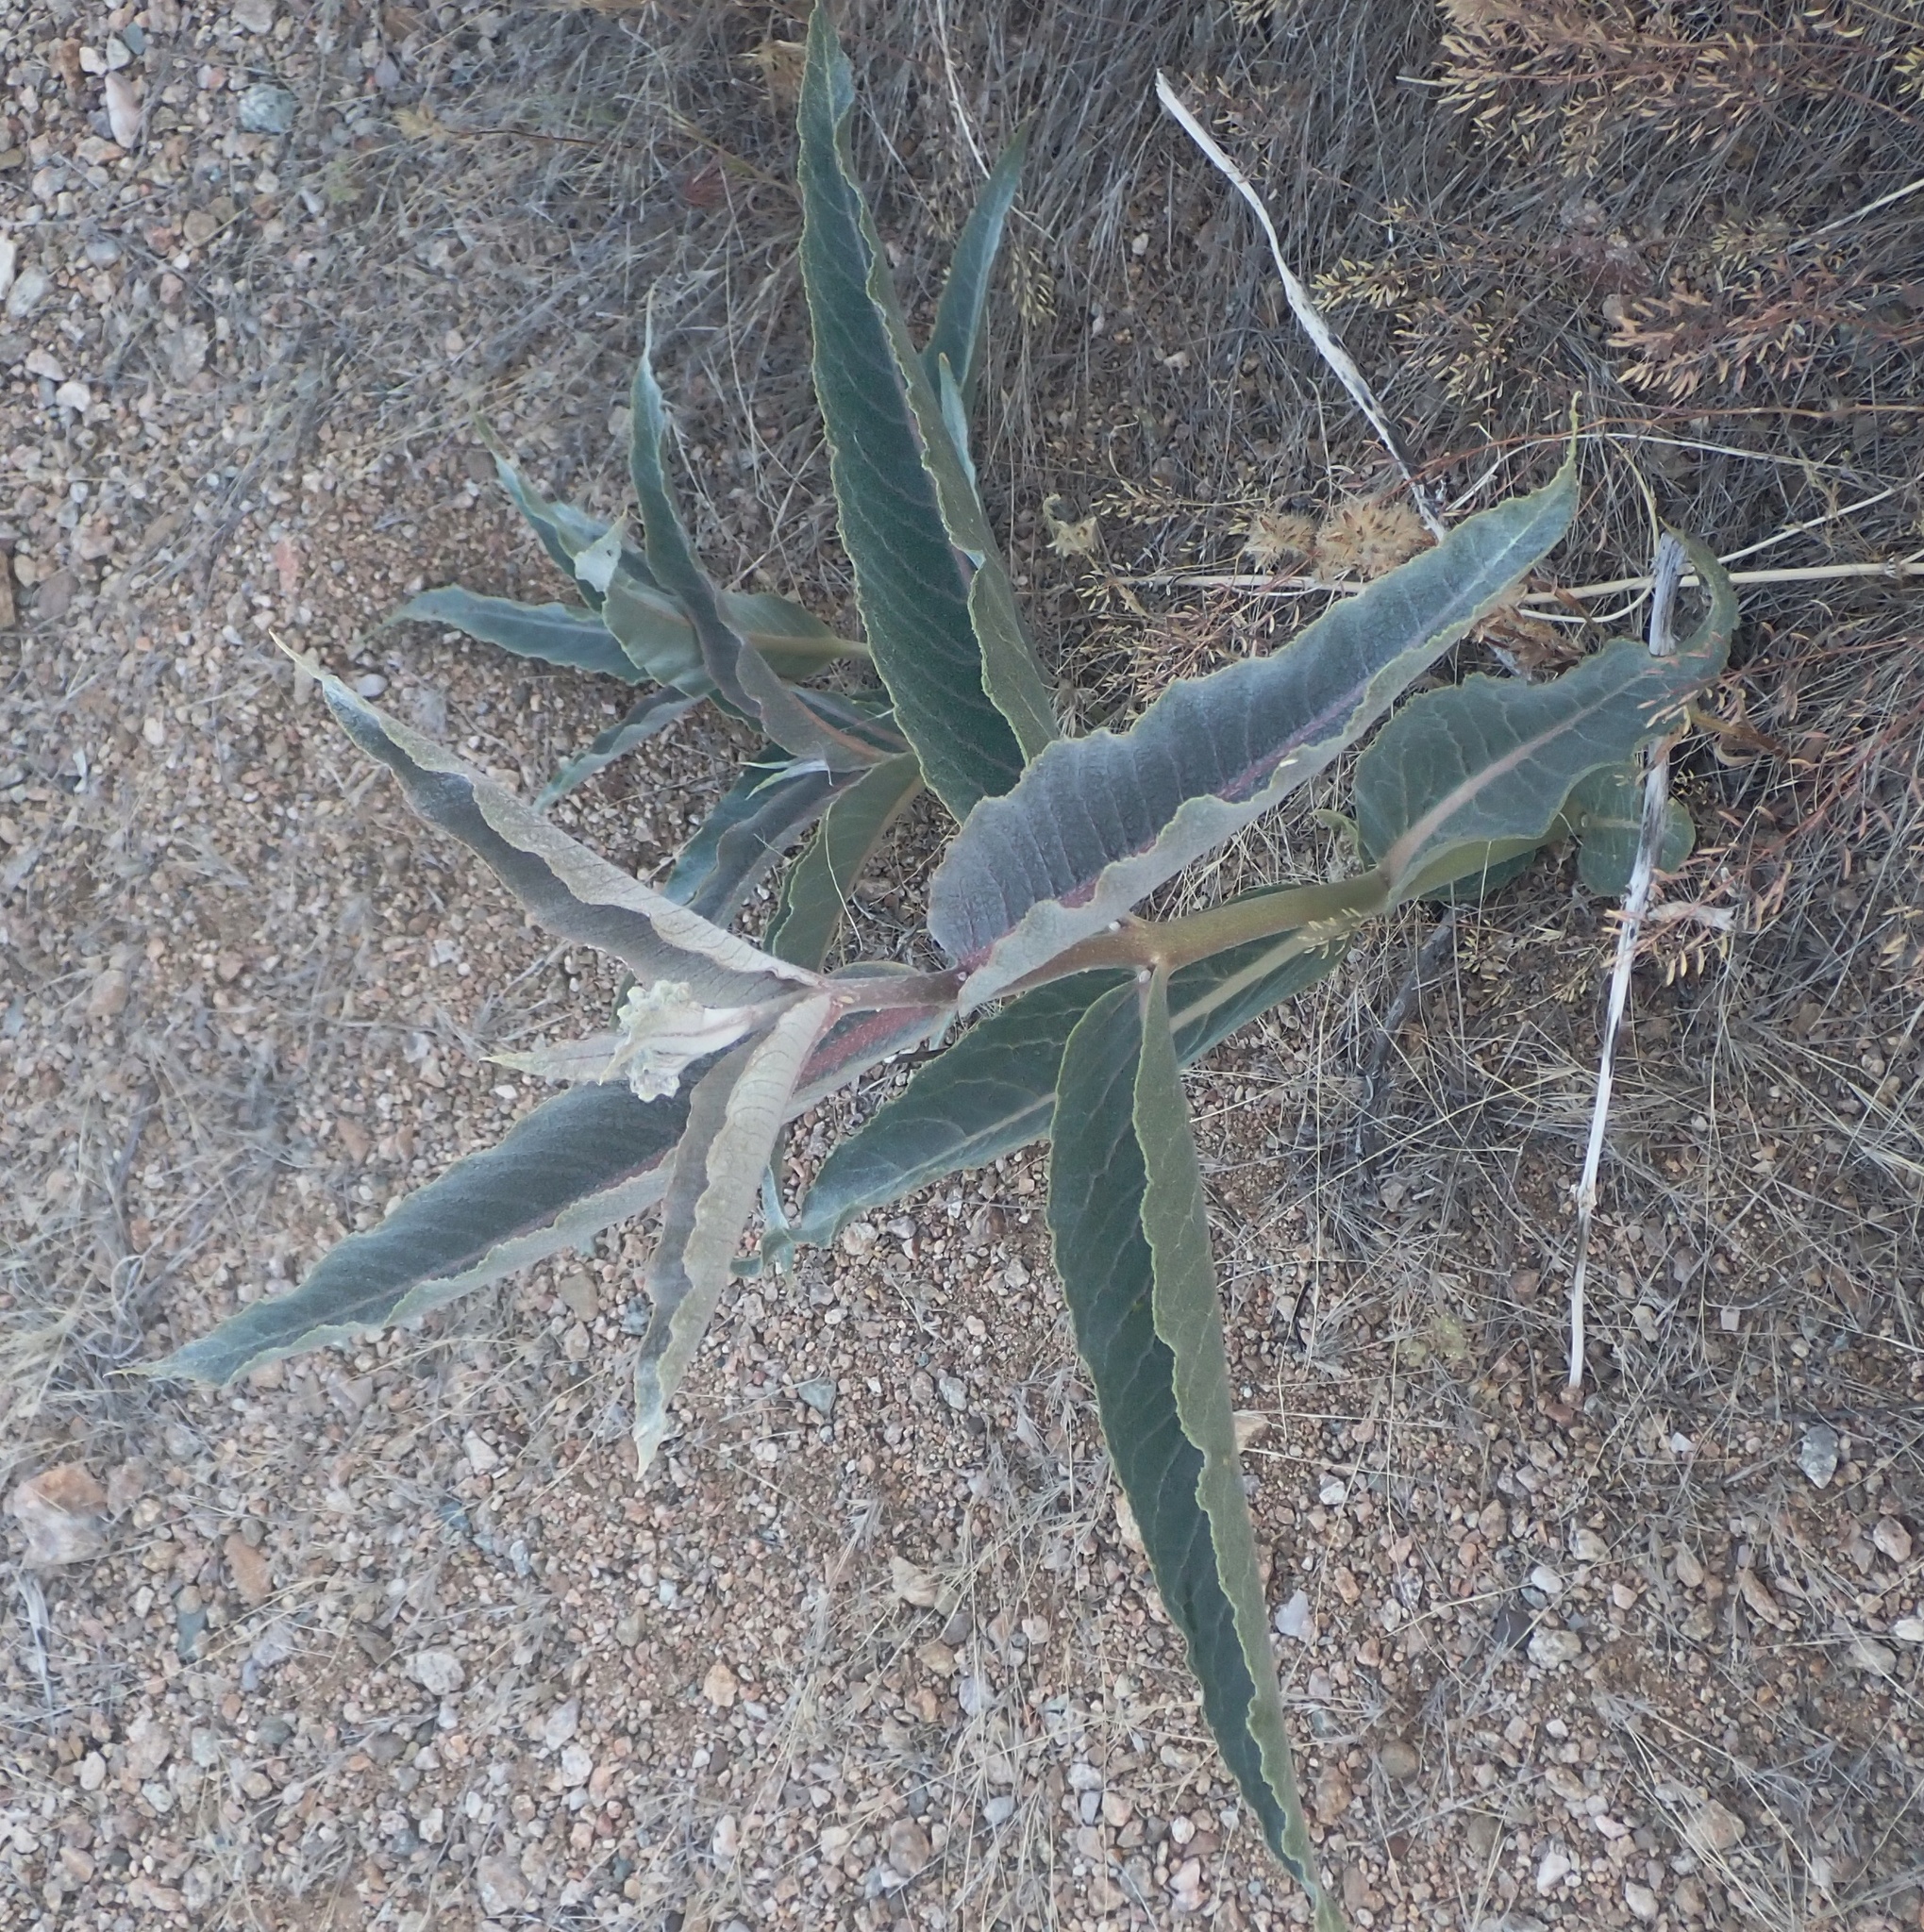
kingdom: Plantae
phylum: Tracheophyta
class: Magnoliopsida
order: Gentianales
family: Apocynaceae
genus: Asclepias
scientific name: Asclepias erosa
